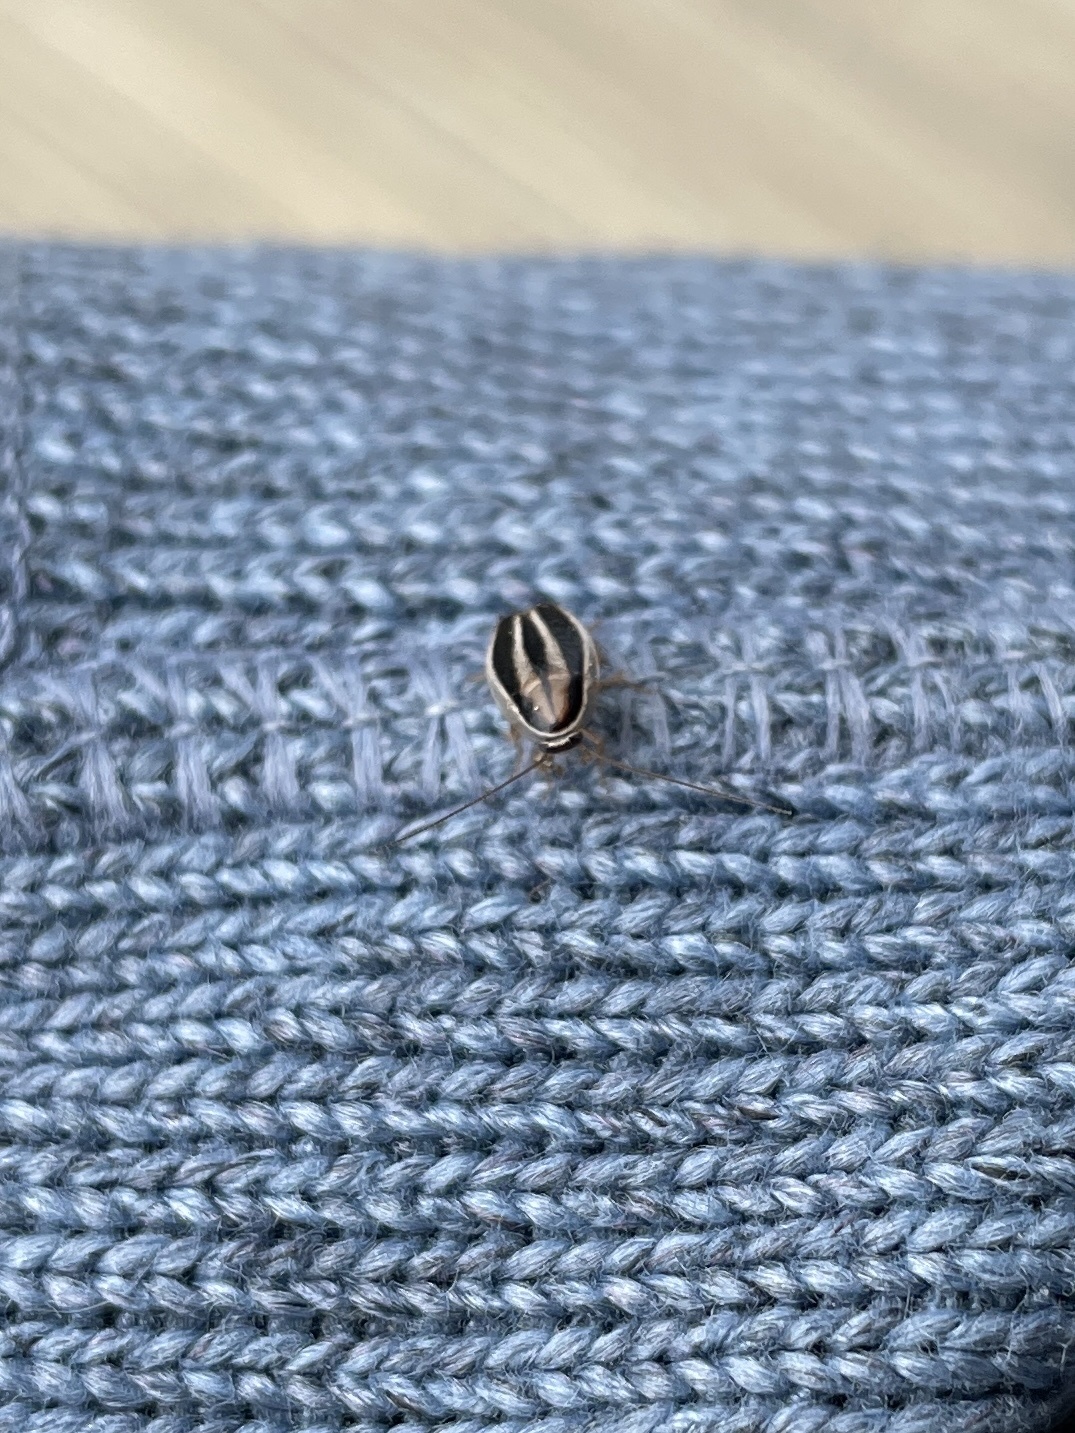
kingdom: Animalia
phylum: Arthropoda
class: Insecta
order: Blattodea
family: Ectobiidae
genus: Luridiblatta
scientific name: Luridiblatta trivittata
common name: Three-lined cockroach
